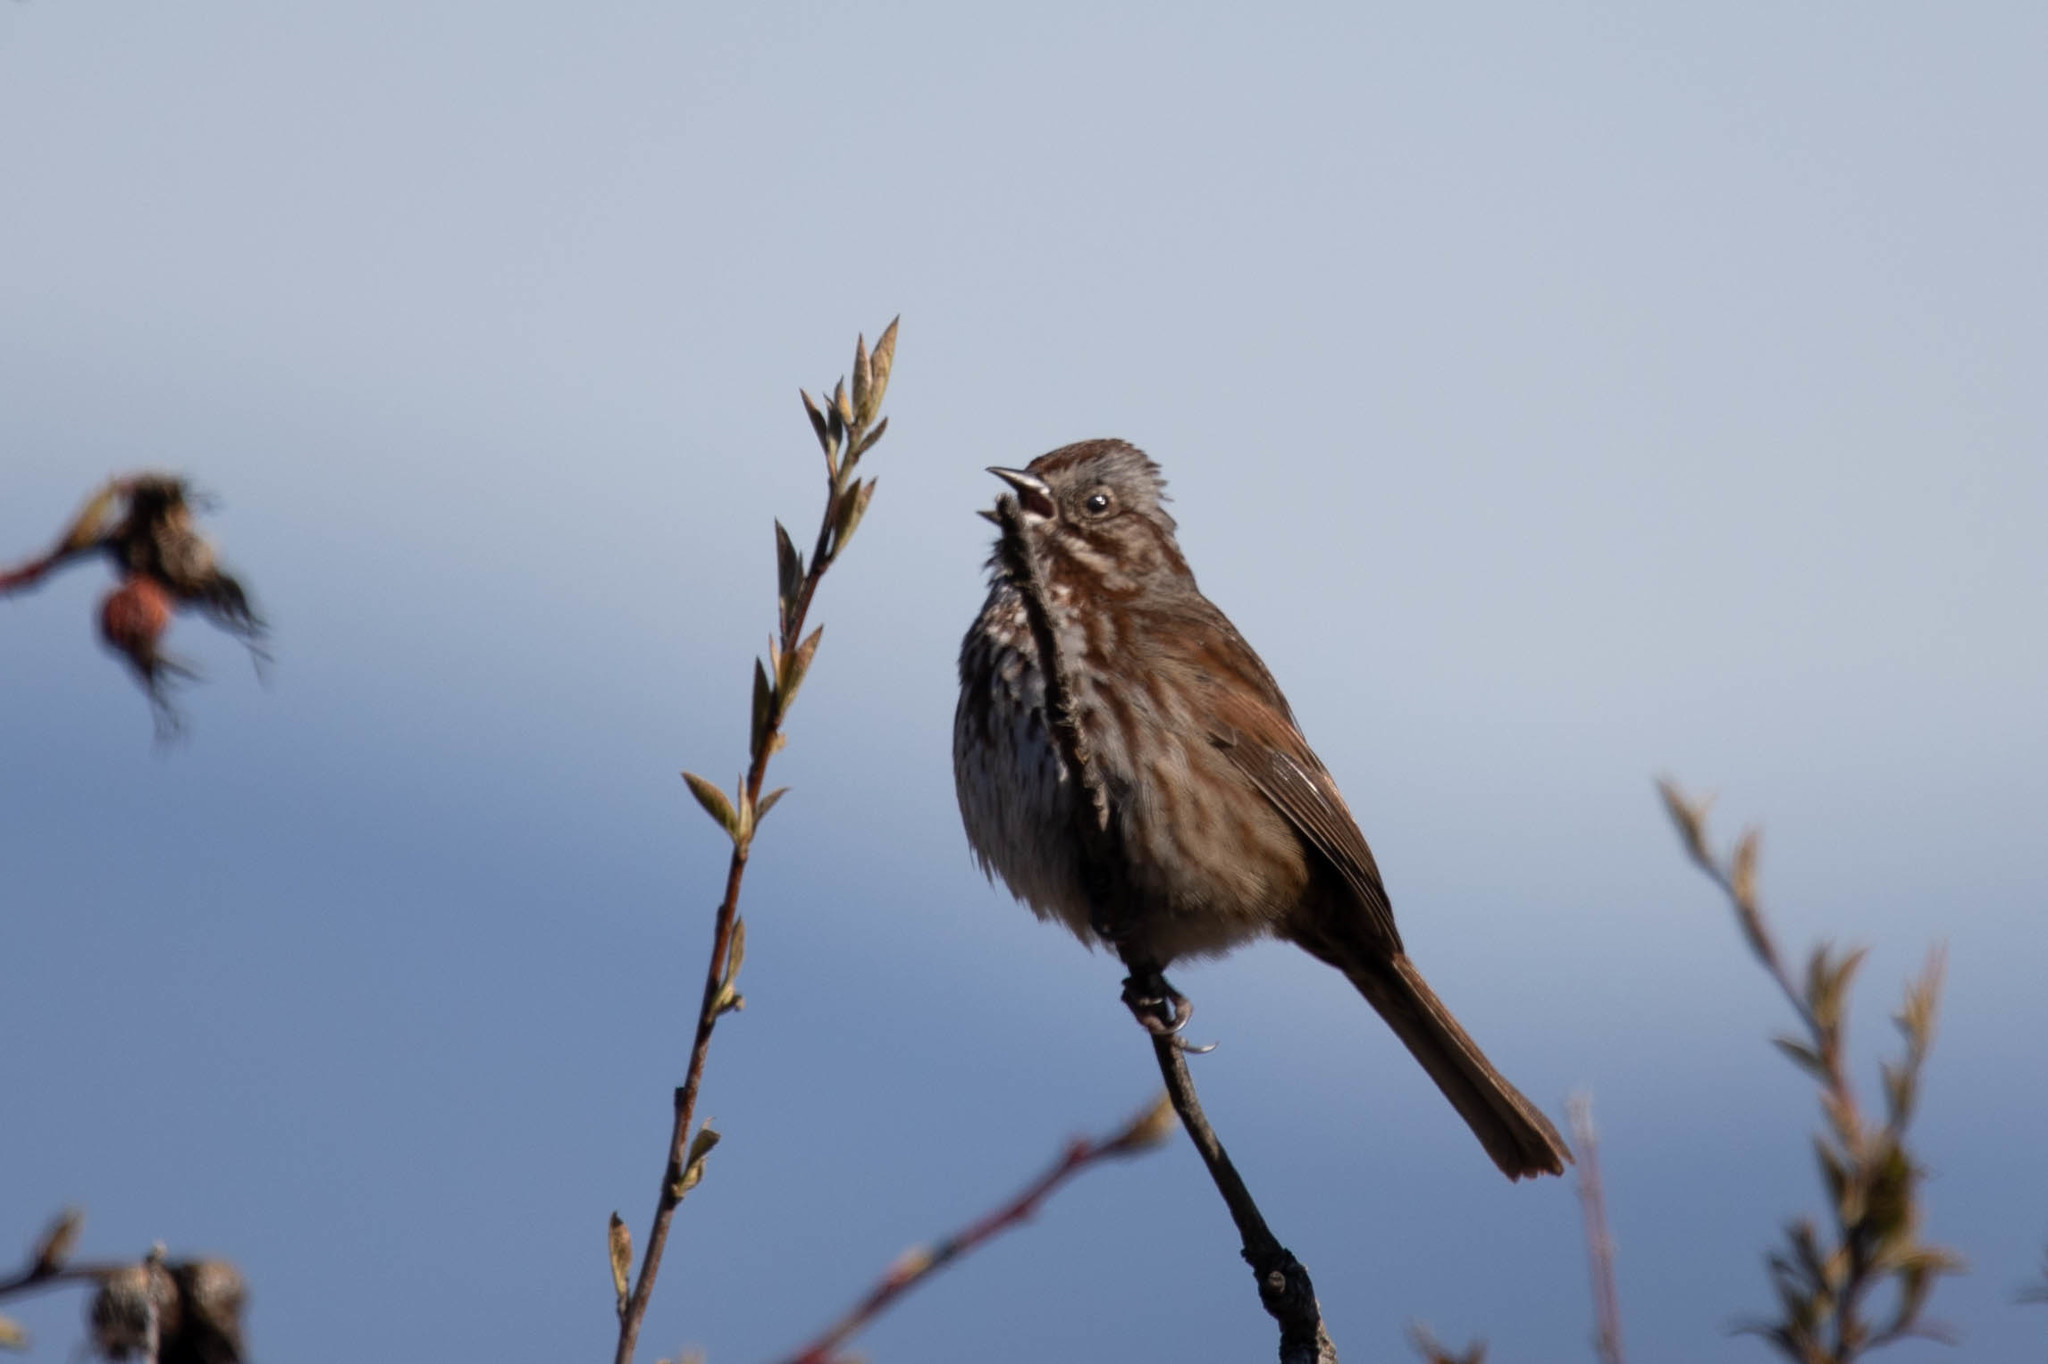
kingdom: Animalia
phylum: Chordata
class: Aves
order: Passeriformes
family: Passerellidae
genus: Melospiza
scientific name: Melospiza melodia
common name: Song sparrow
